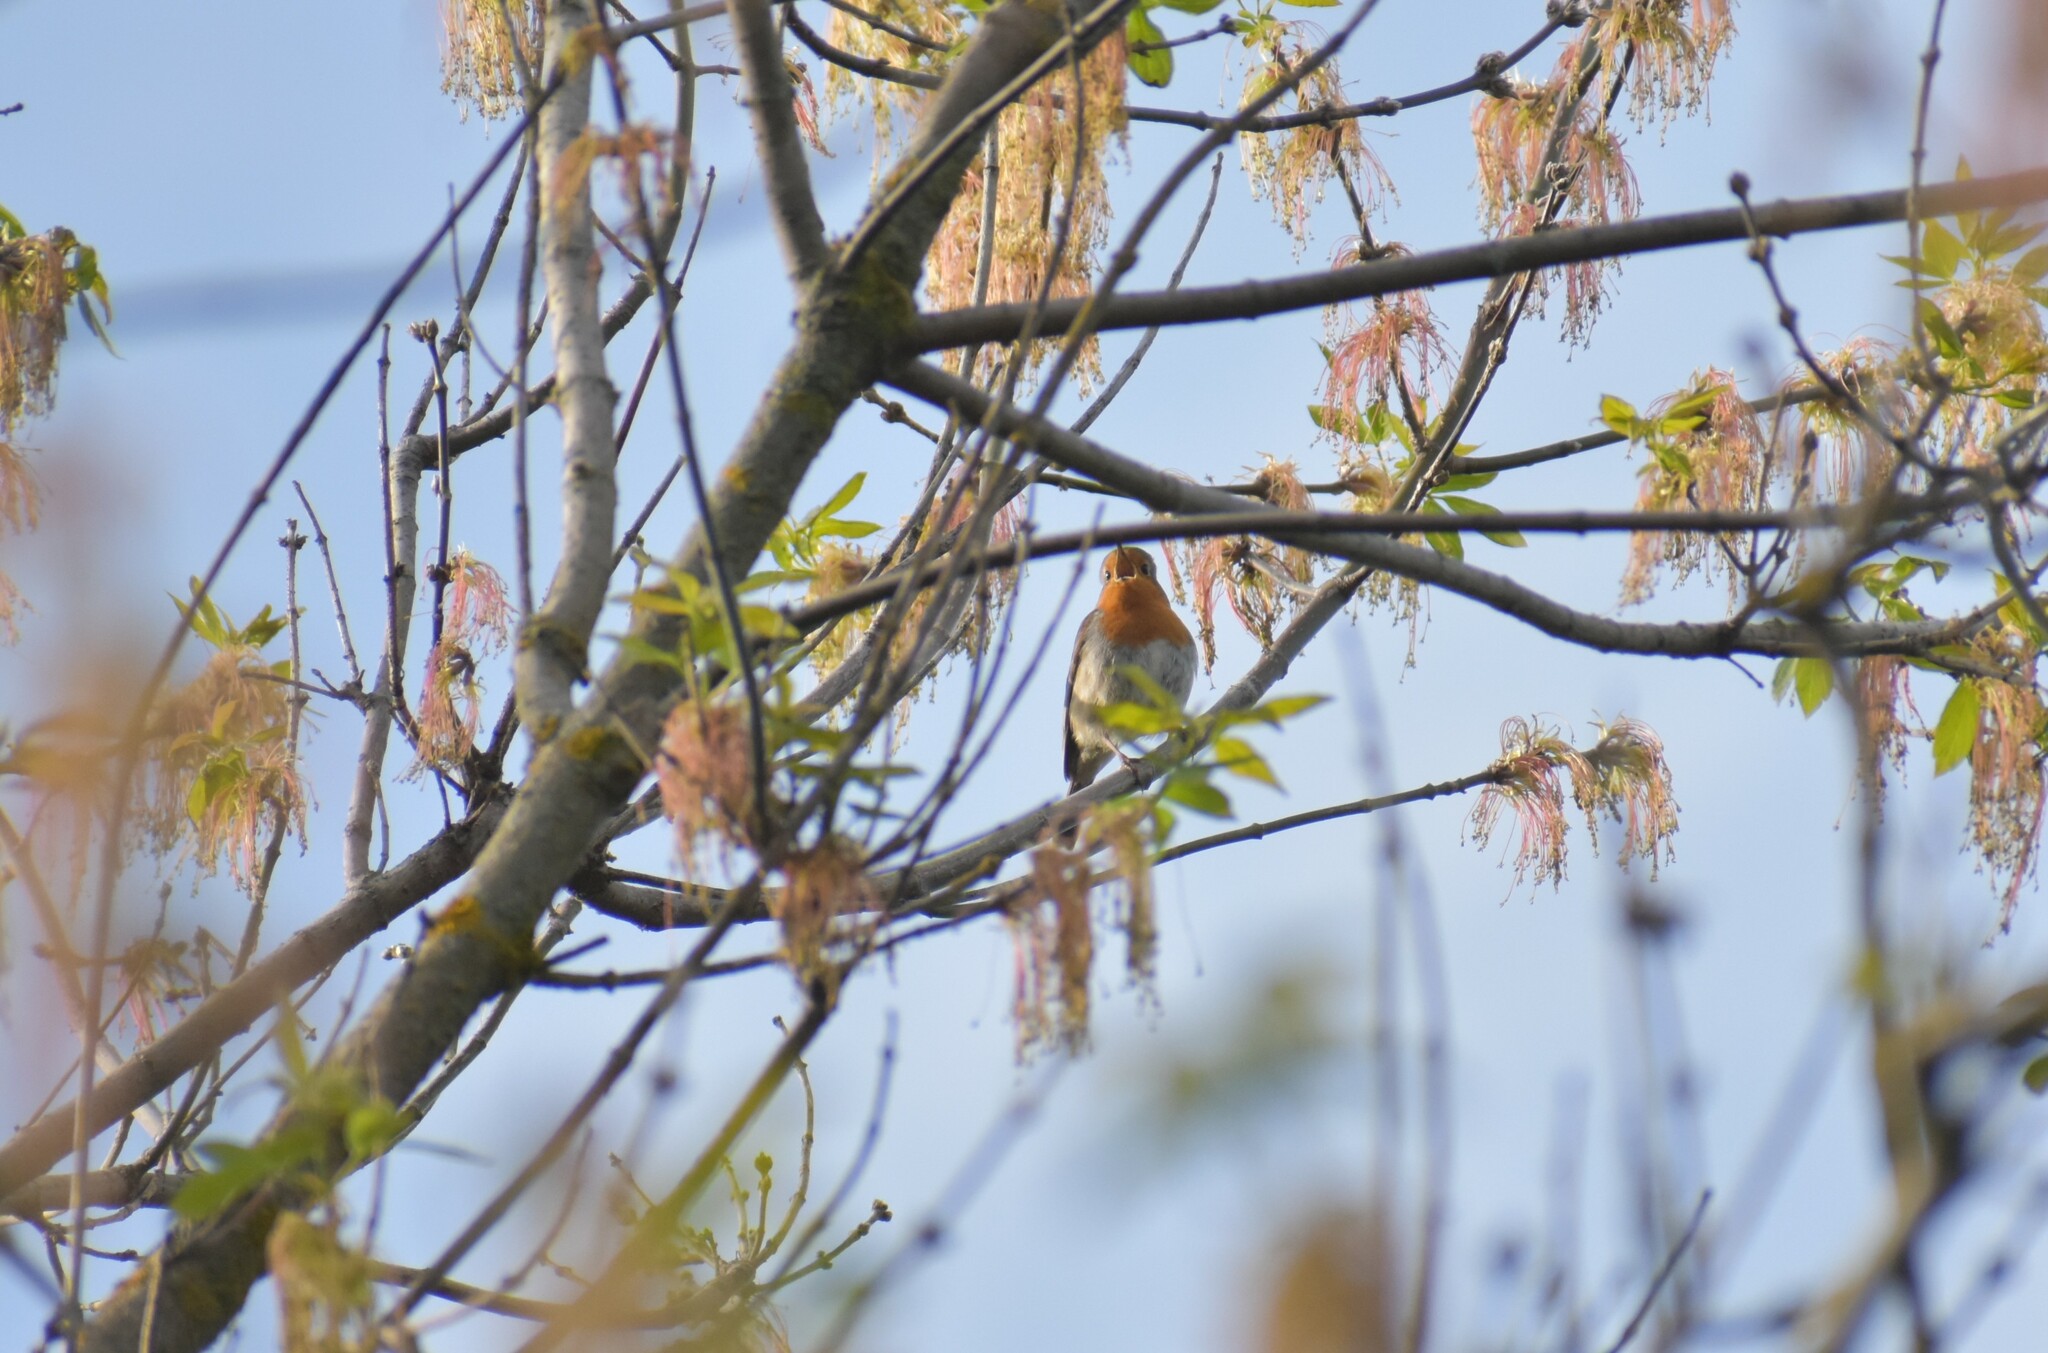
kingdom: Animalia
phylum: Chordata
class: Aves
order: Passeriformes
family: Muscicapidae
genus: Erithacus
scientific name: Erithacus rubecula
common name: European robin
